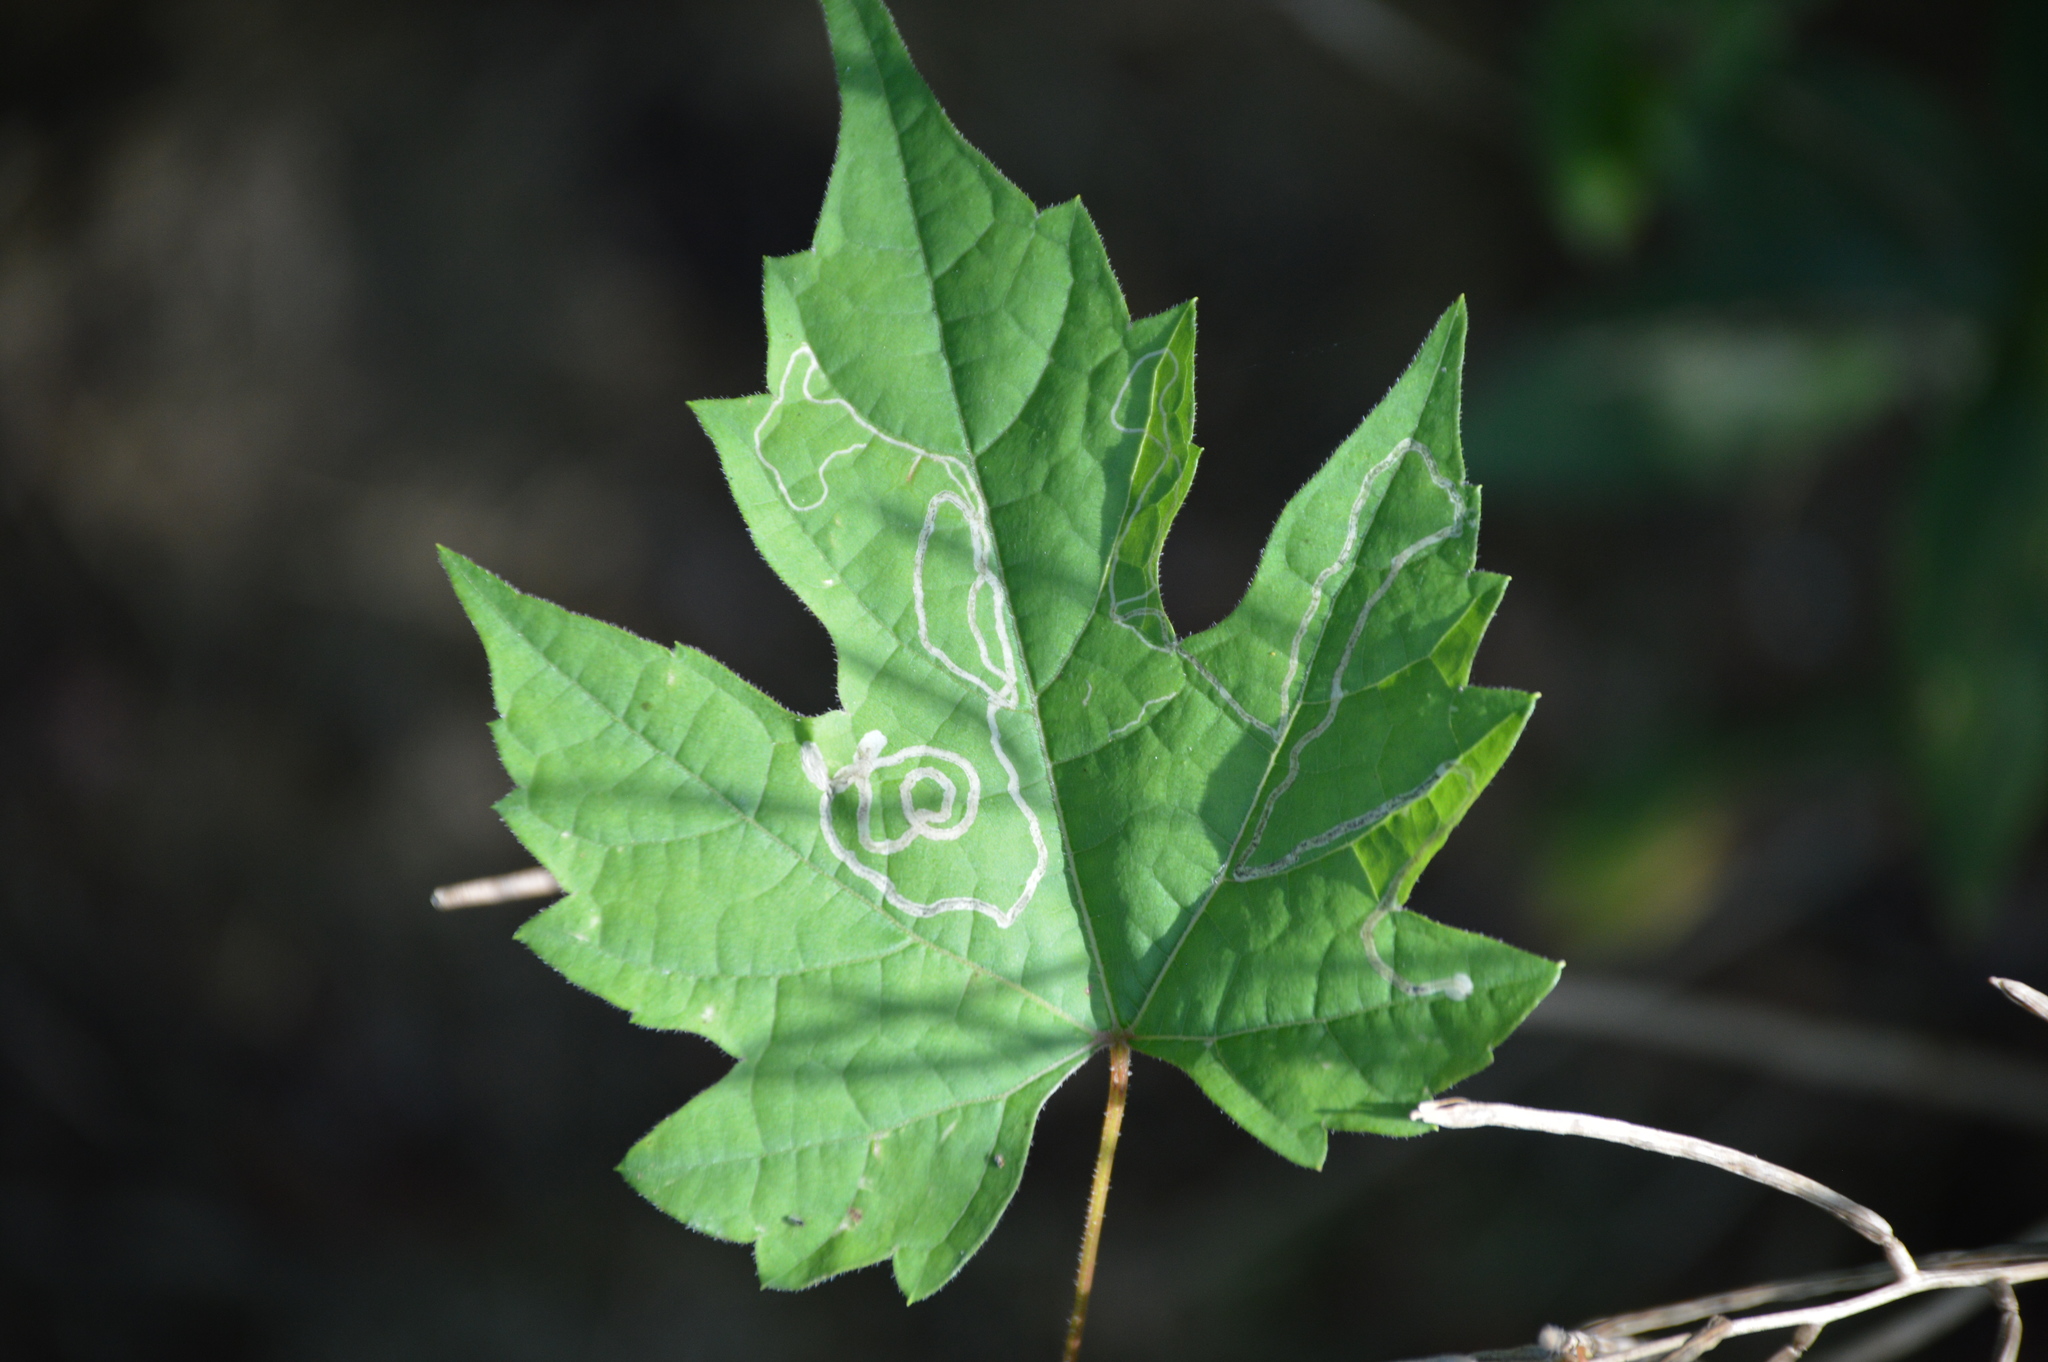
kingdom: Animalia
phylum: Arthropoda
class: Insecta
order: Lepidoptera
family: Gracillariidae
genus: Phyllocnistis
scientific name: Phyllocnistis vitifoliella
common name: Grape leaf-miner moth
